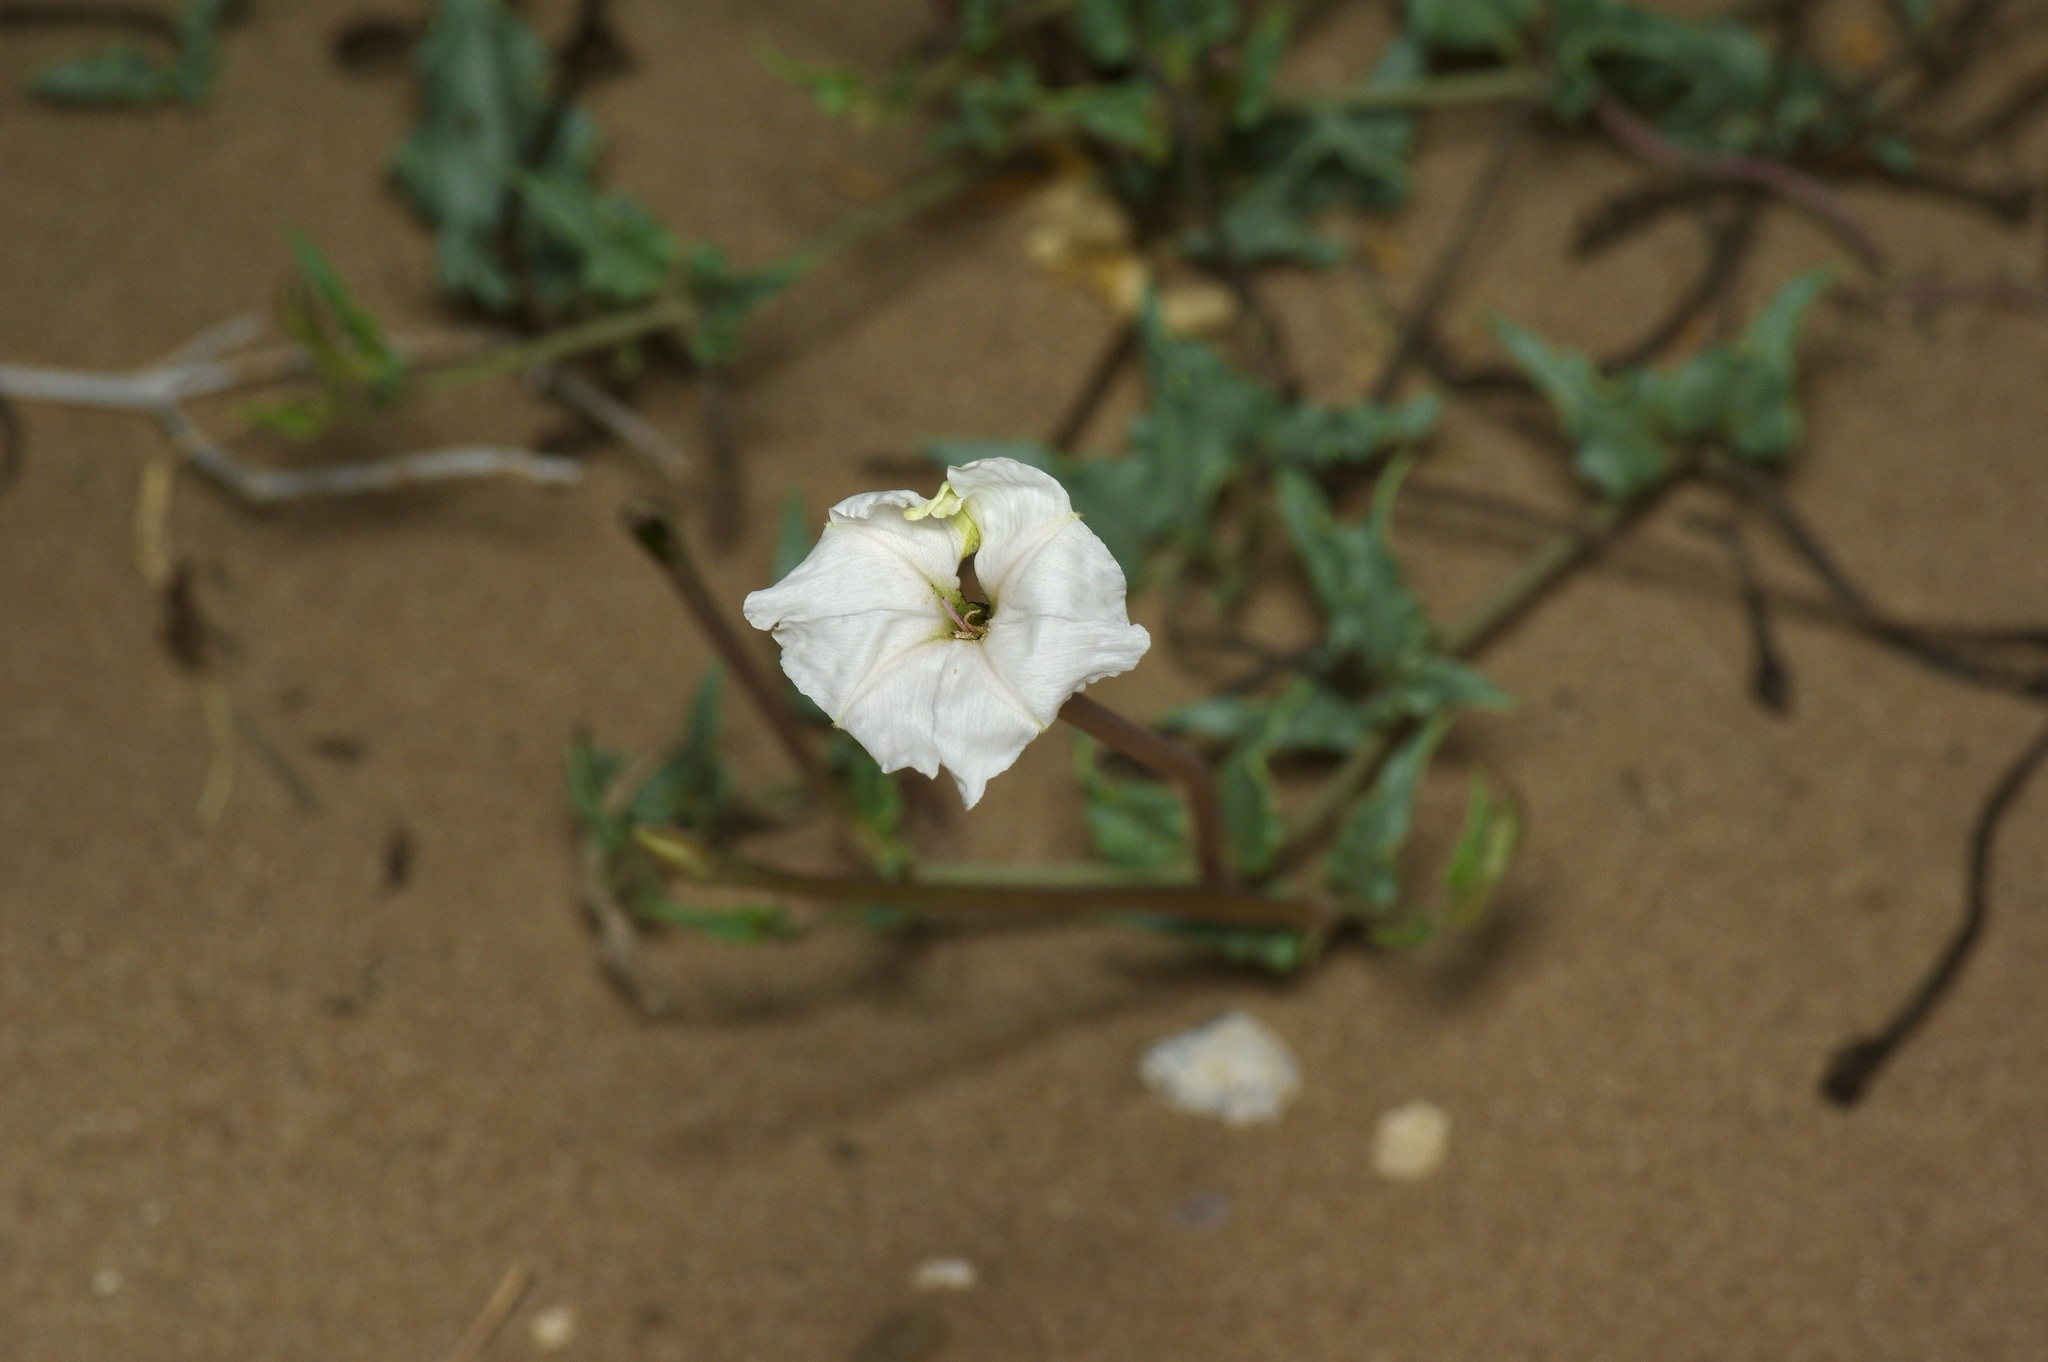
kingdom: Plantae
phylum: Tracheophyta
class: Magnoliopsida
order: Caryophyllales
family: Nyctaginaceae
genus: Acleisanthes
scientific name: Acleisanthes longiflora
